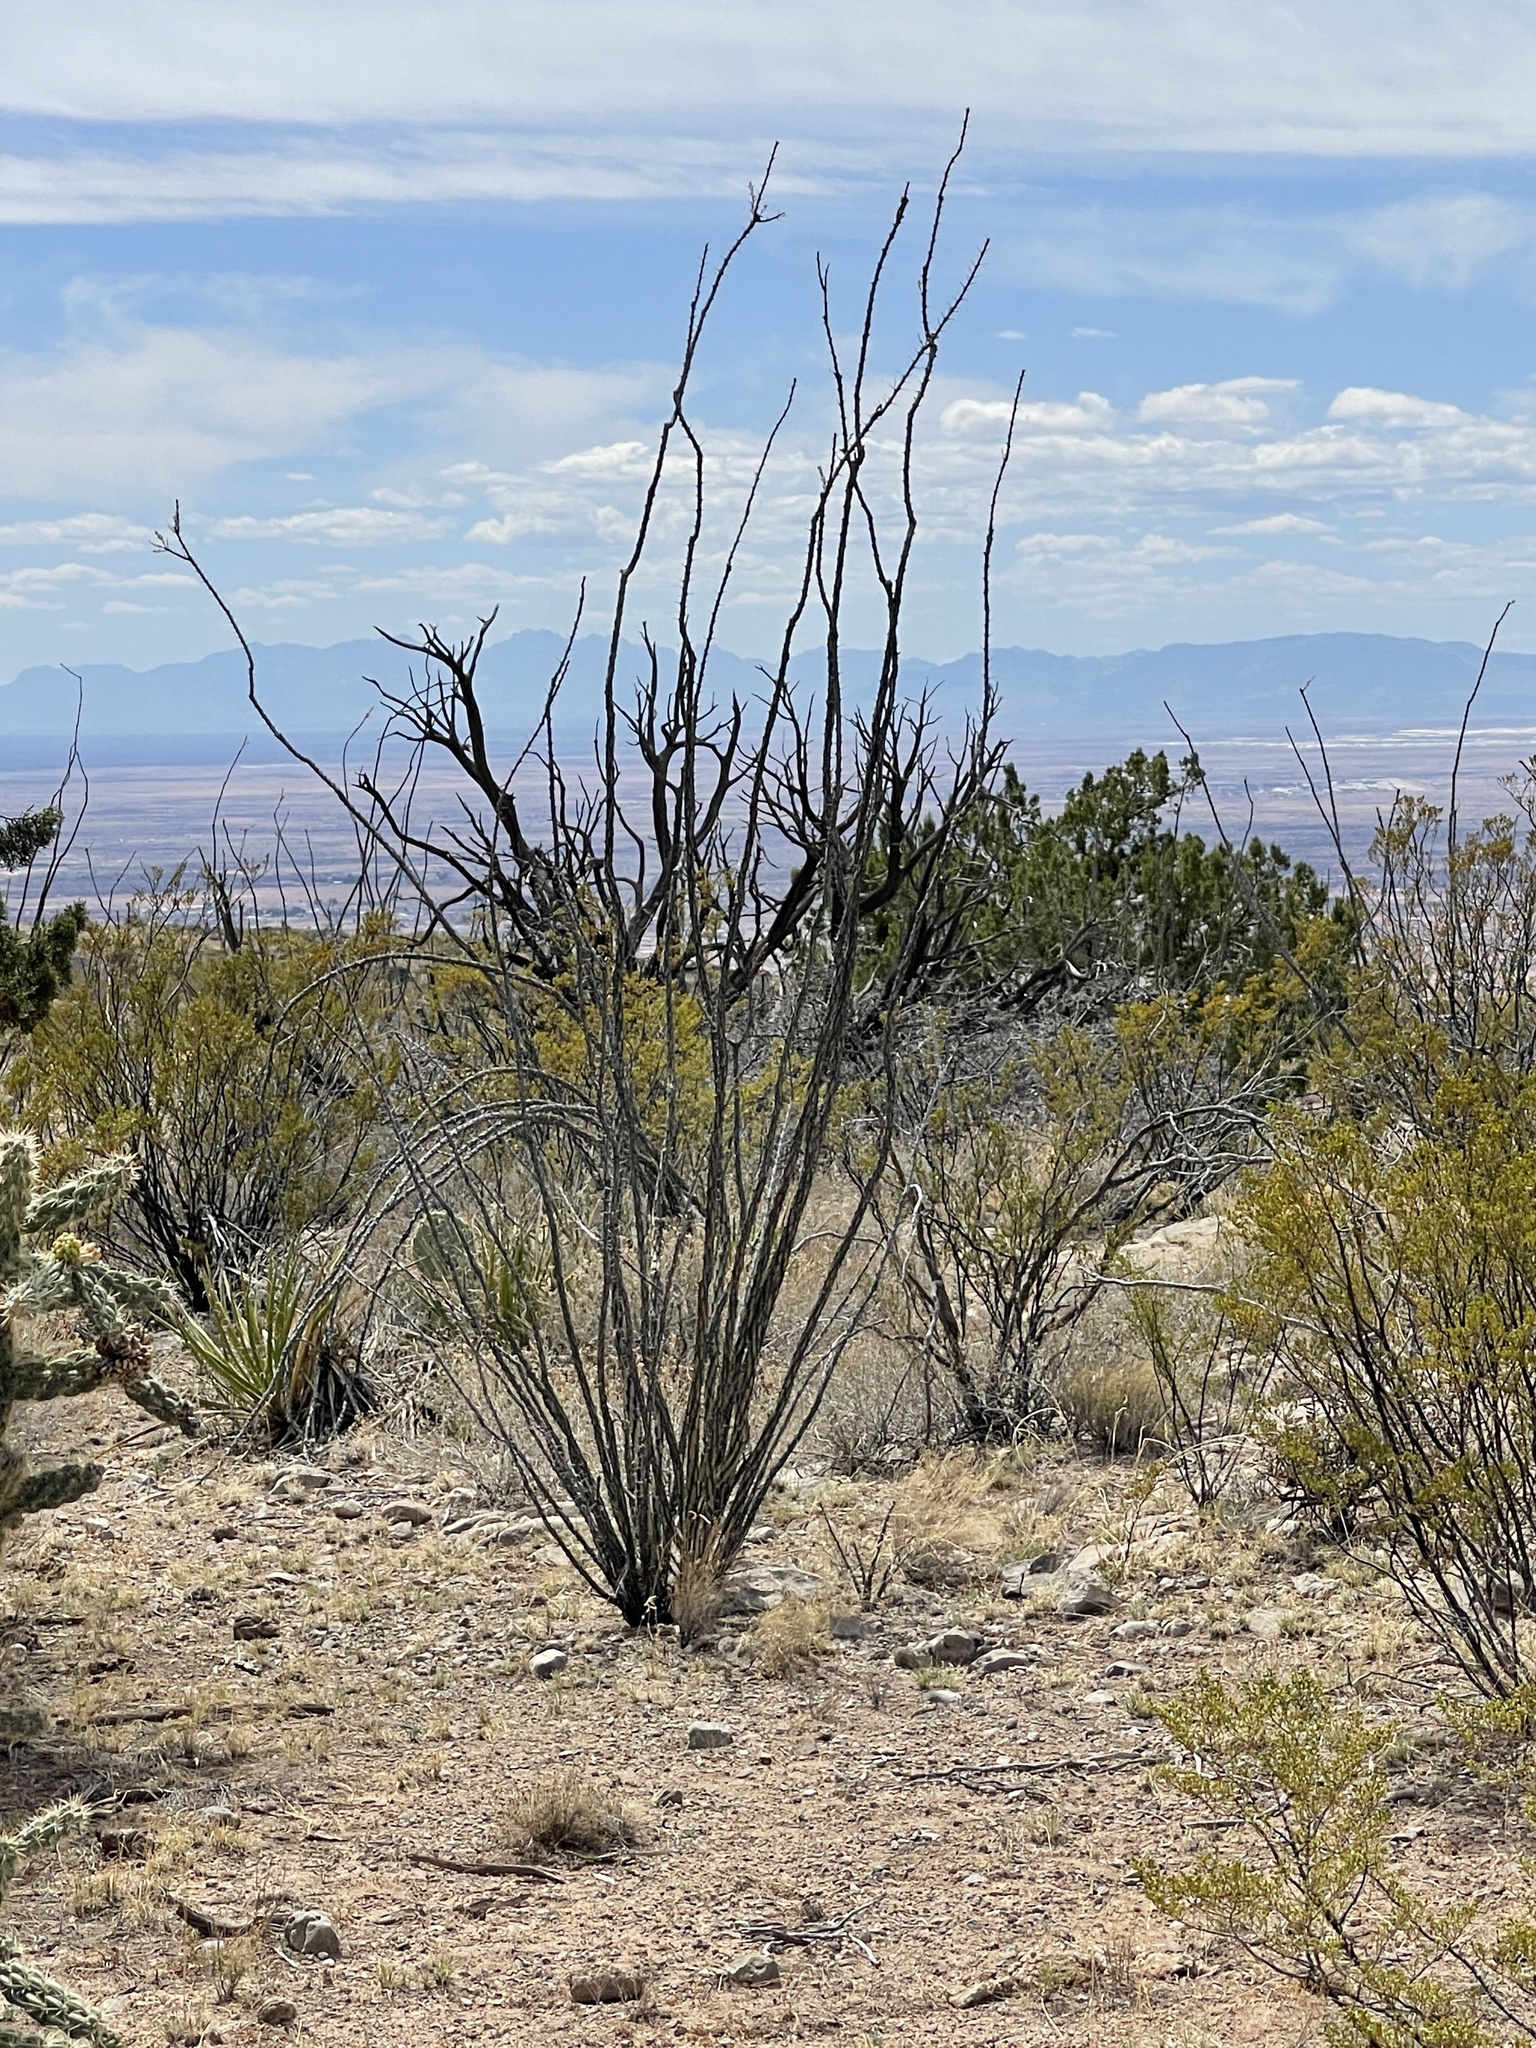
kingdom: Plantae
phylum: Tracheophyta
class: Magnoliopsida
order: Ericales
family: Fouquieriaceae
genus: Fouquieria
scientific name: Fouquieria splendens
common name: Vine-cactus
